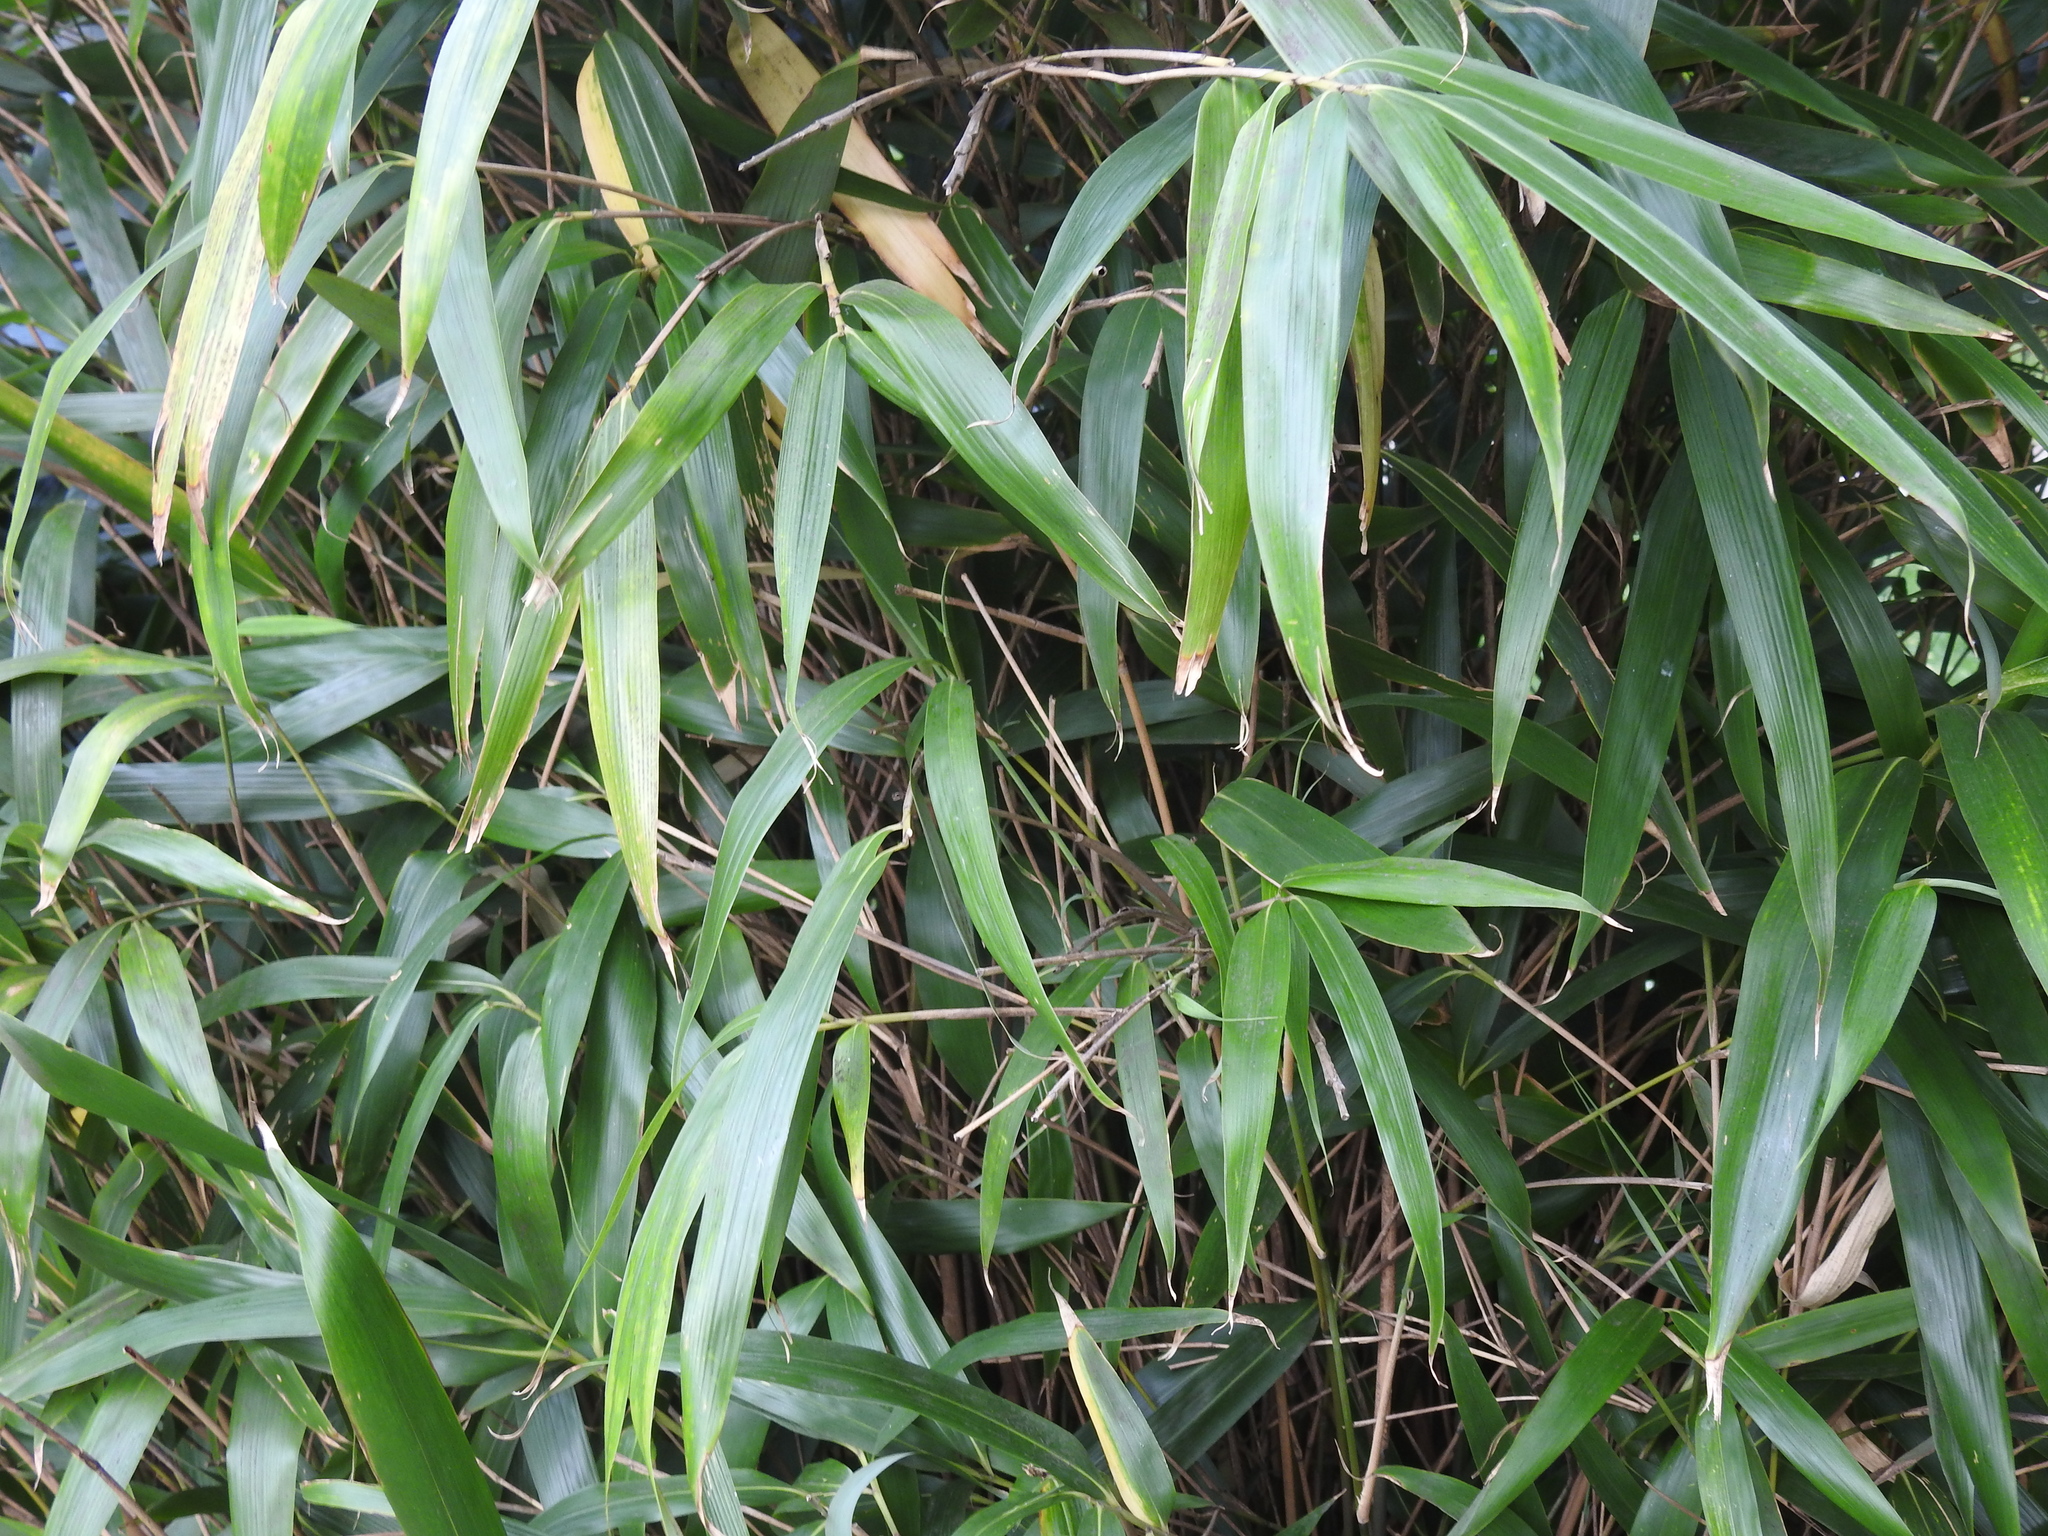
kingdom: Plantae
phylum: Tracheophyta
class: Liliopsida
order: Poales
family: Poaceae
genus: Pseudosasa
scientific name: Pseudosasa japonica
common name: Arrow bamboo
